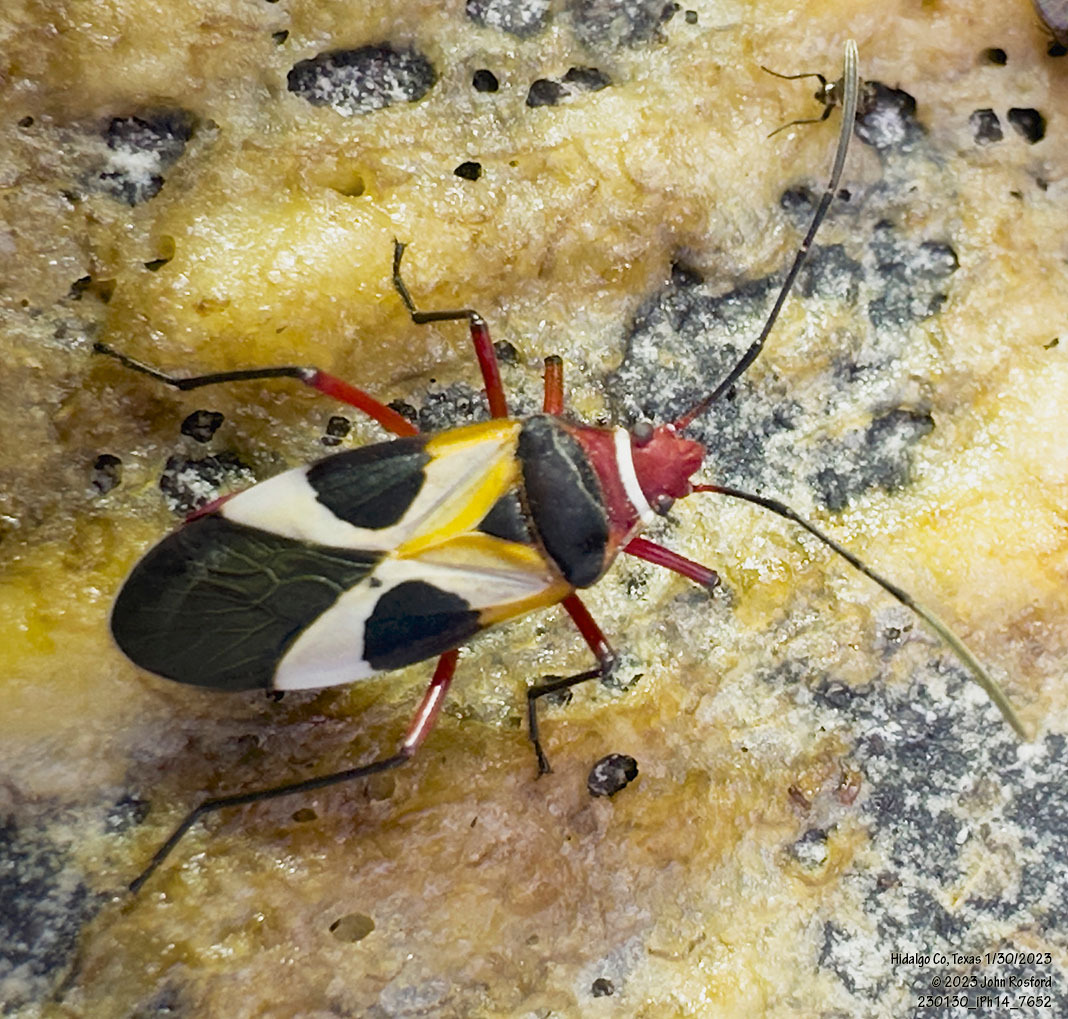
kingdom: Animalia
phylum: Arthropoda
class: Insecta
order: Hemiptera
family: Pyrrhocoridae
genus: Dysdercus
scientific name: Dysdercus concinnus
